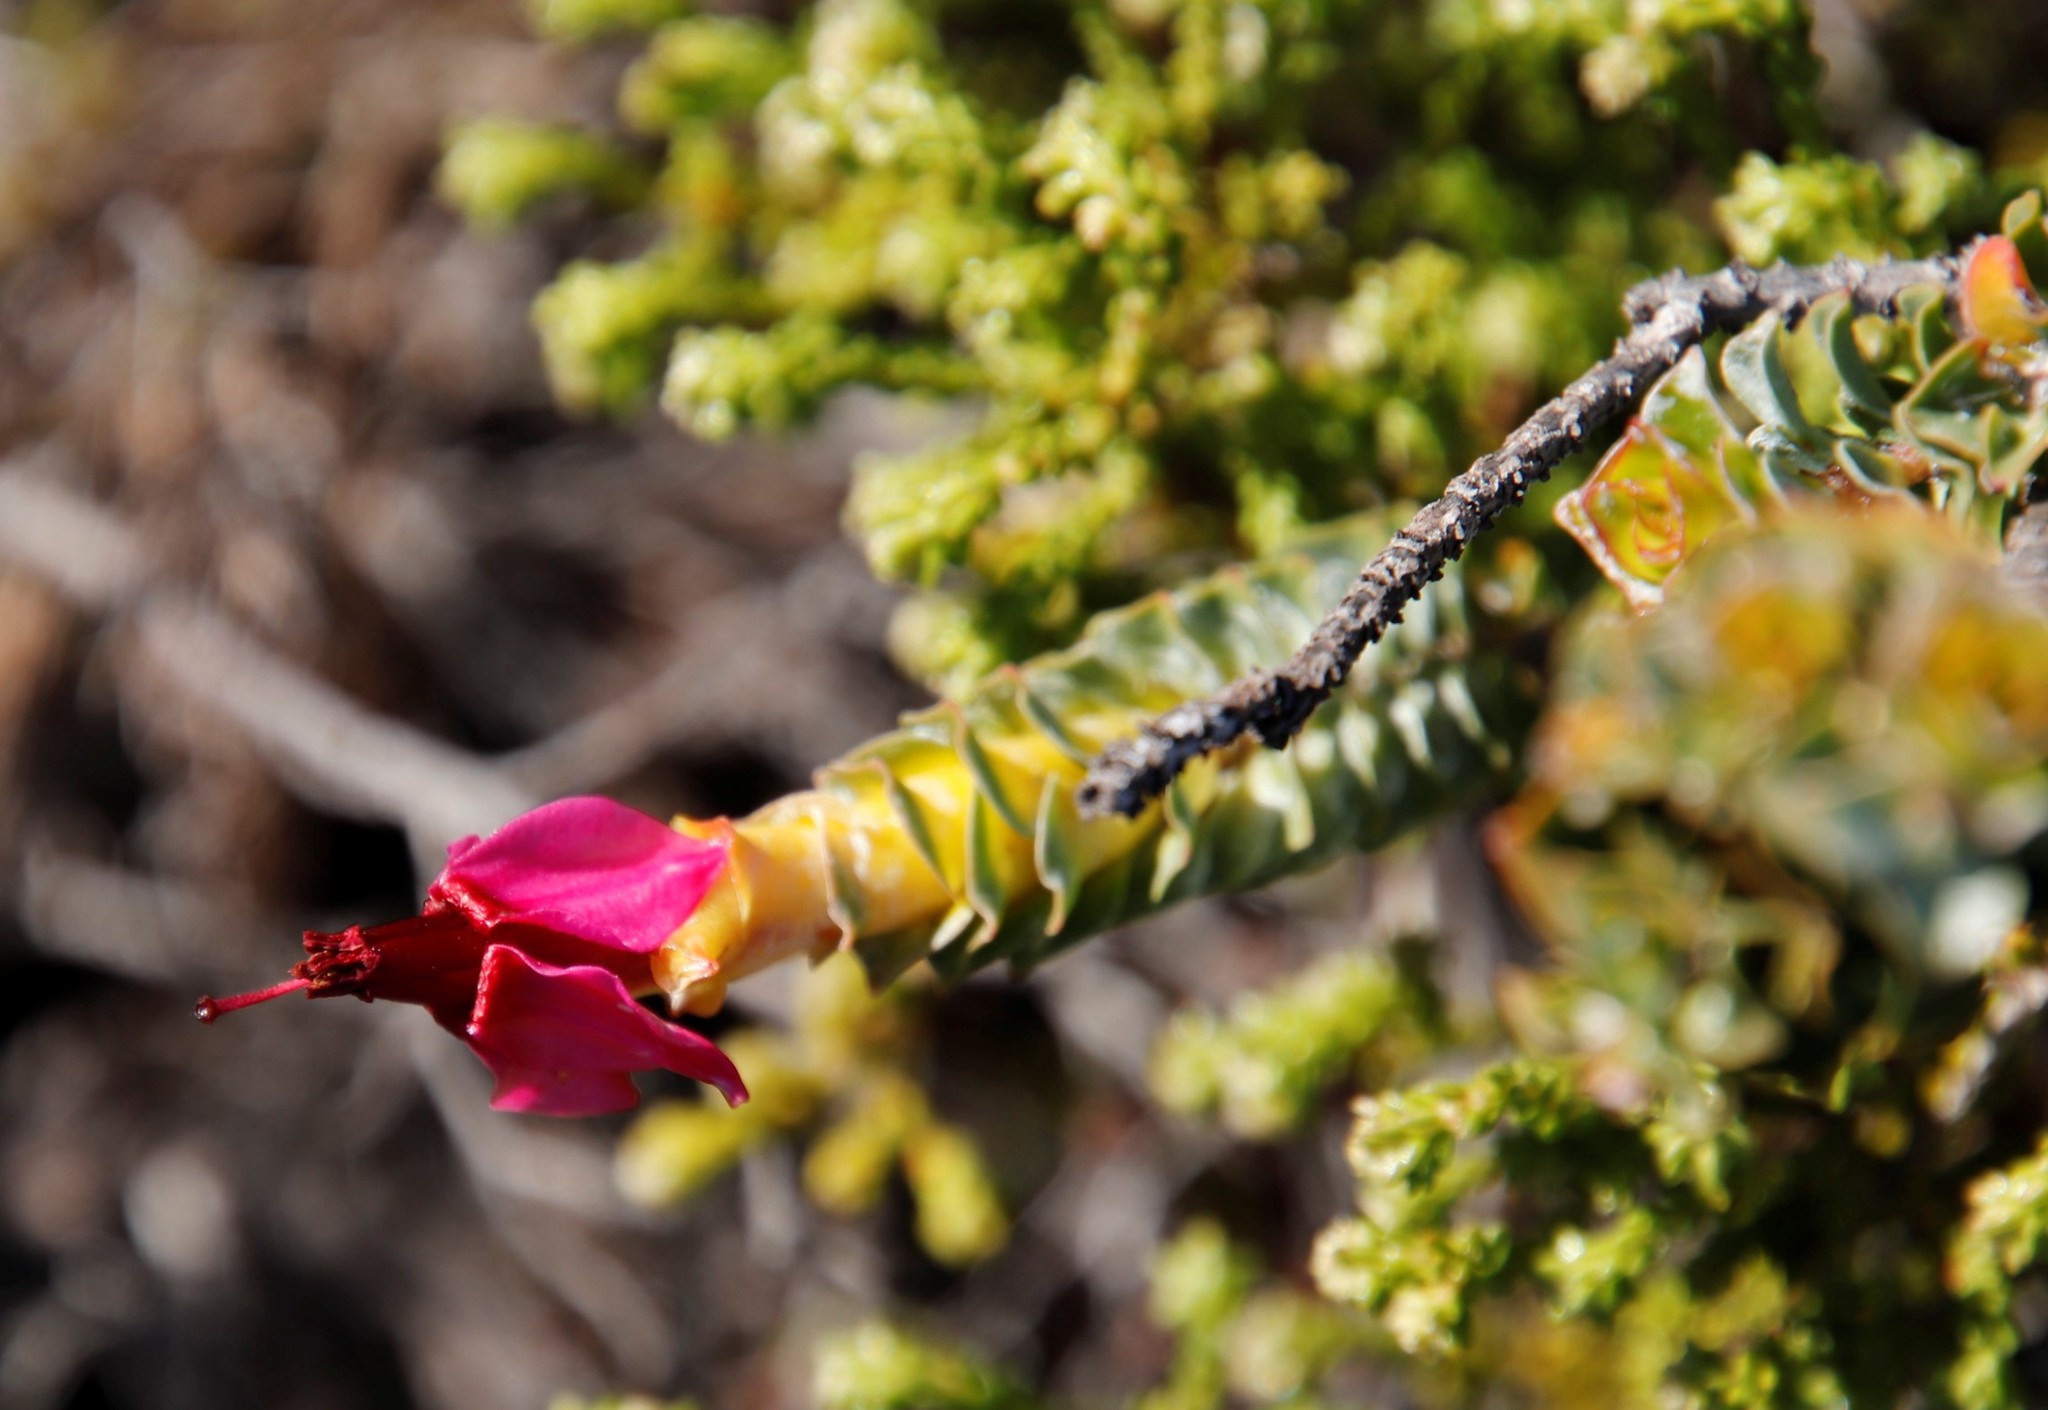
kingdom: Plantae
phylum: Tracheophyta
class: Magnoliopsida
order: Myrtales
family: Penaeaceae
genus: Saltera
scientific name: Saltera sarcocolla
